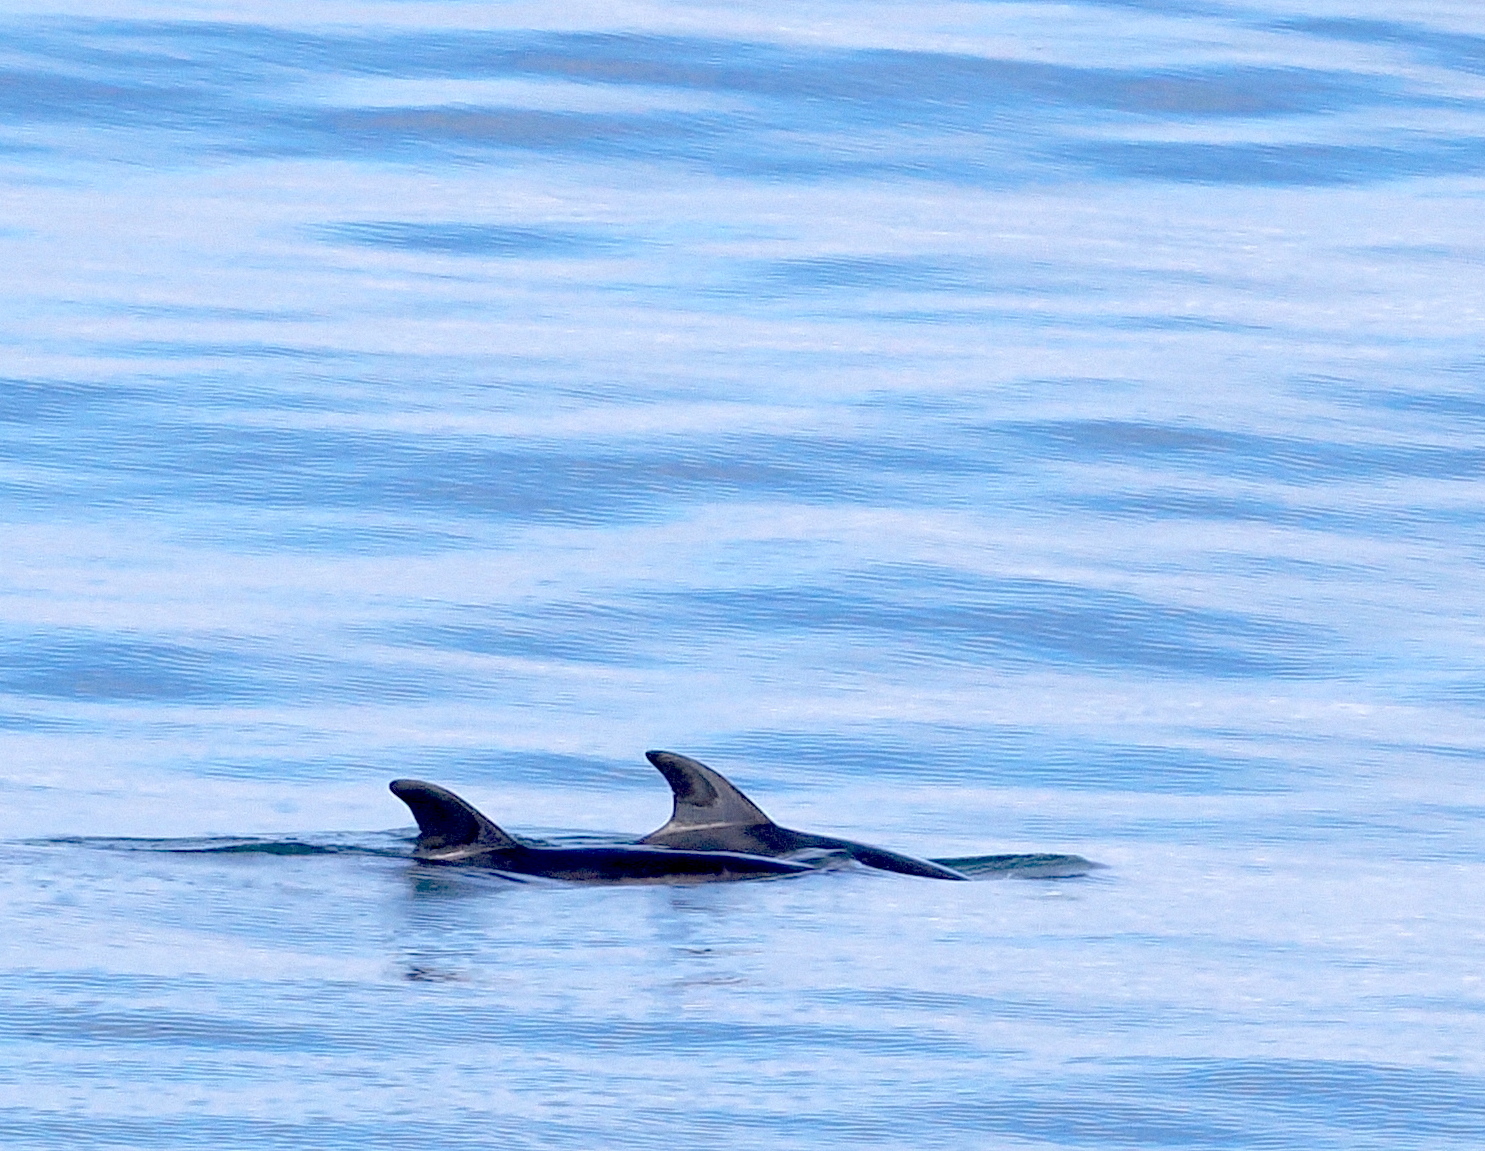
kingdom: Animalia
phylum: Chordata
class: Mammalia
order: Cetacea
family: Delphinidae
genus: Tursiops
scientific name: Tursiops truncatus
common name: Bottlenose dolphin
